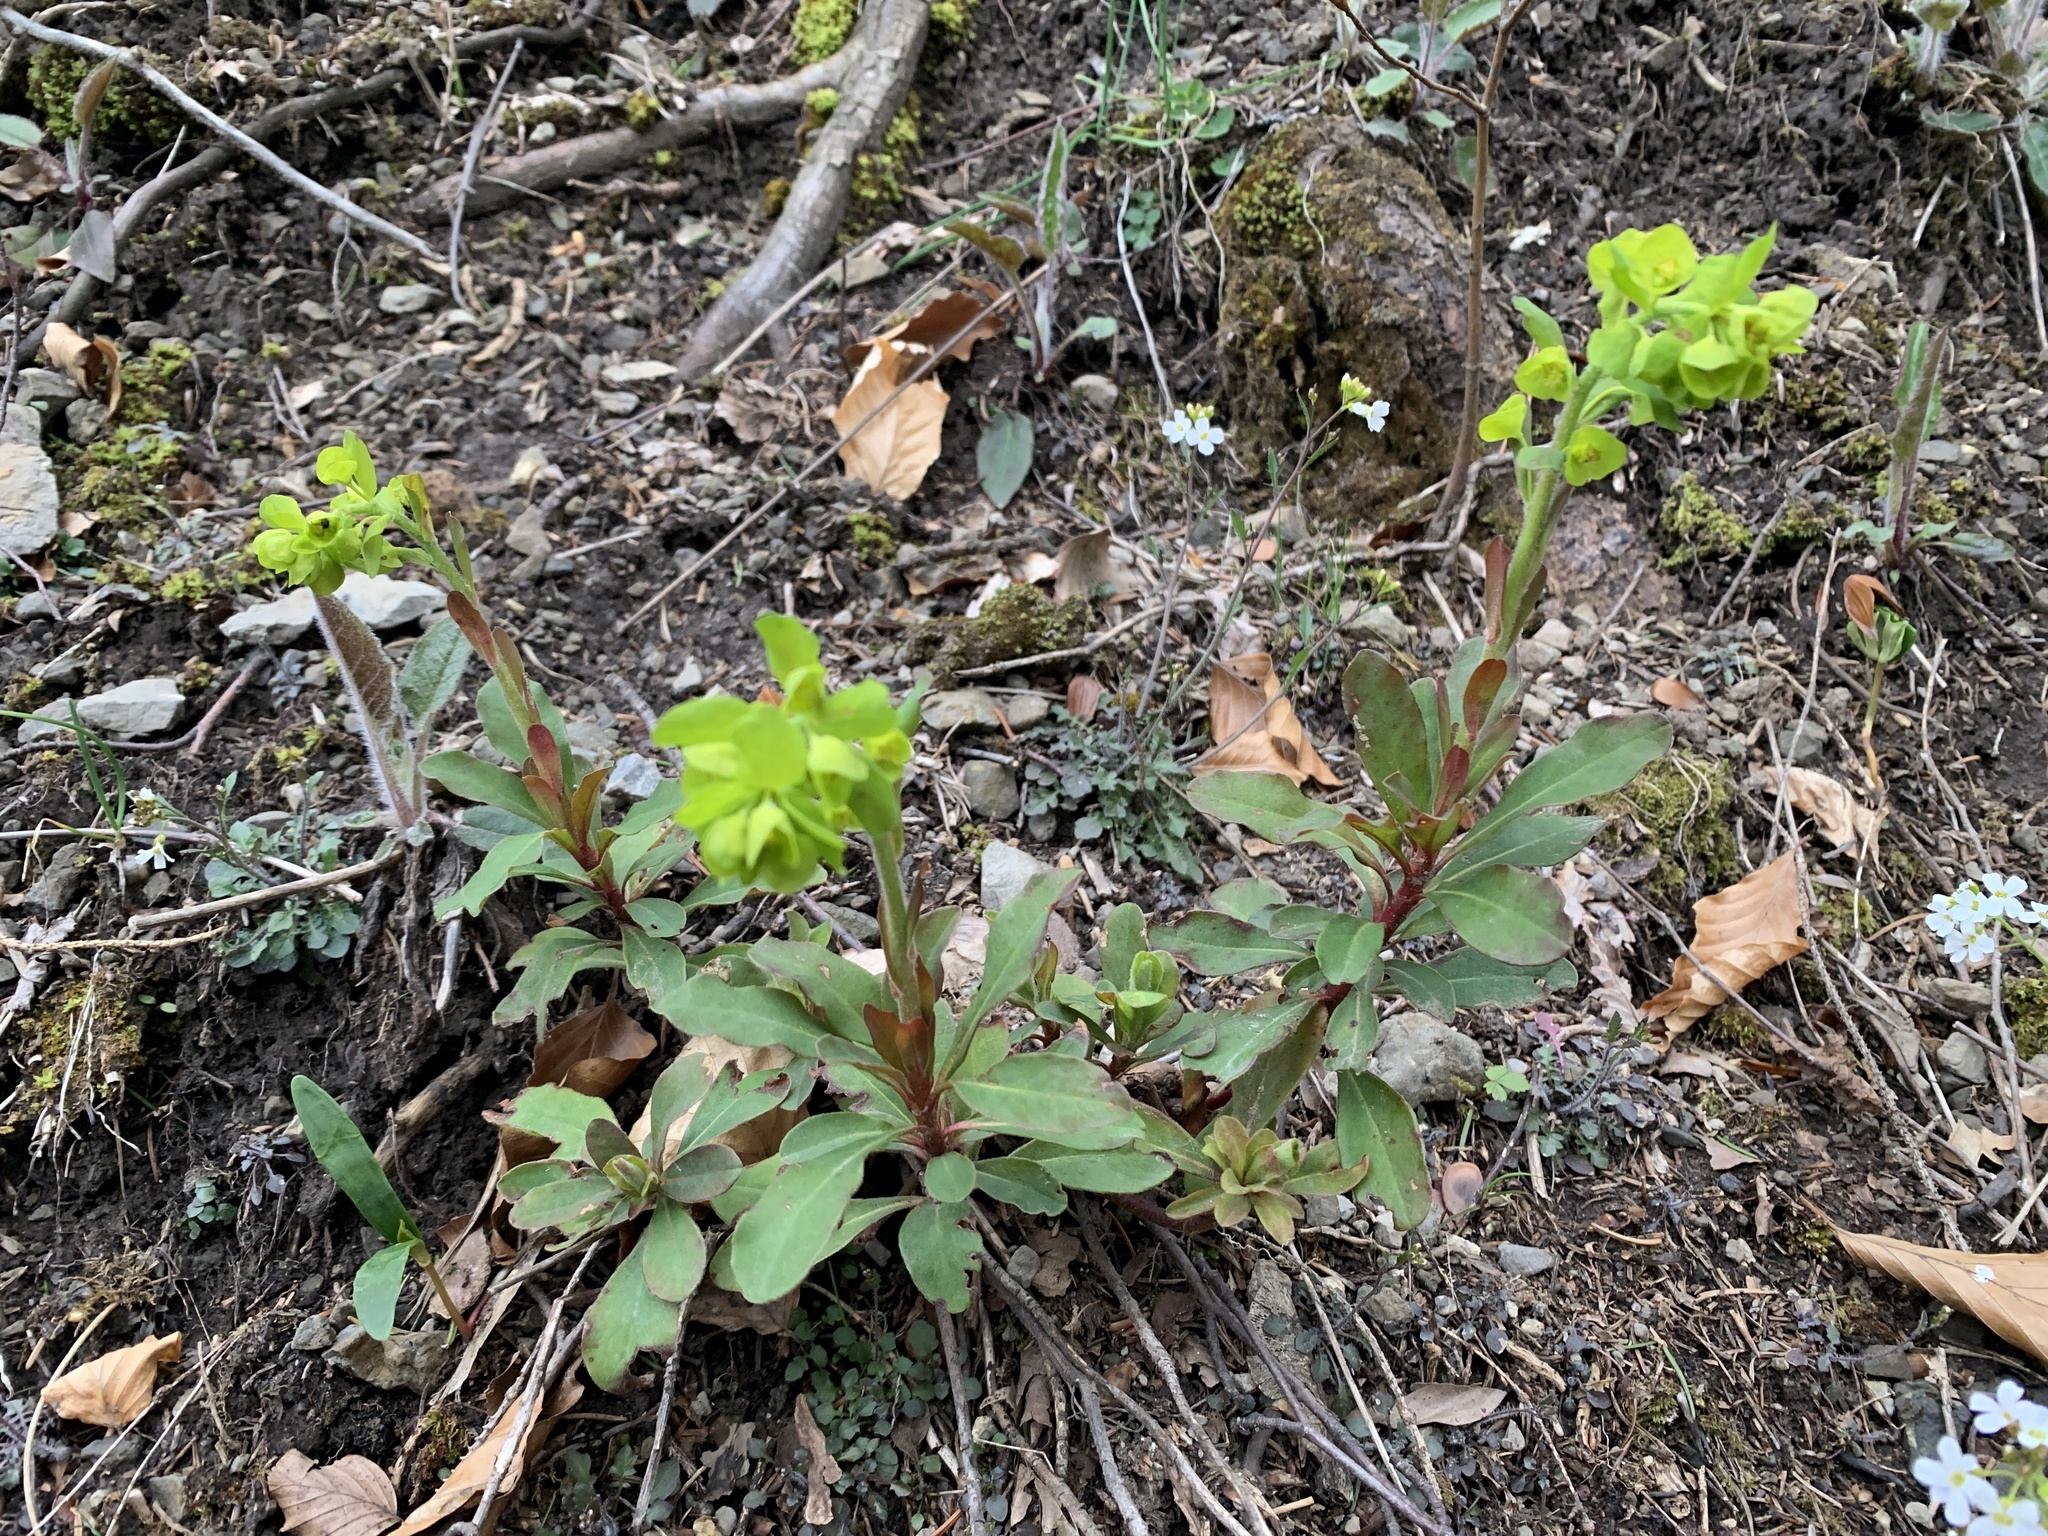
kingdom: Plantae
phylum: Tracheophyta
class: Magnoliopsida
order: Malpighiales
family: Euphorbiaceae
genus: Euphorbia
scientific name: Euphorbia amygdaloides
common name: Wood spurge
